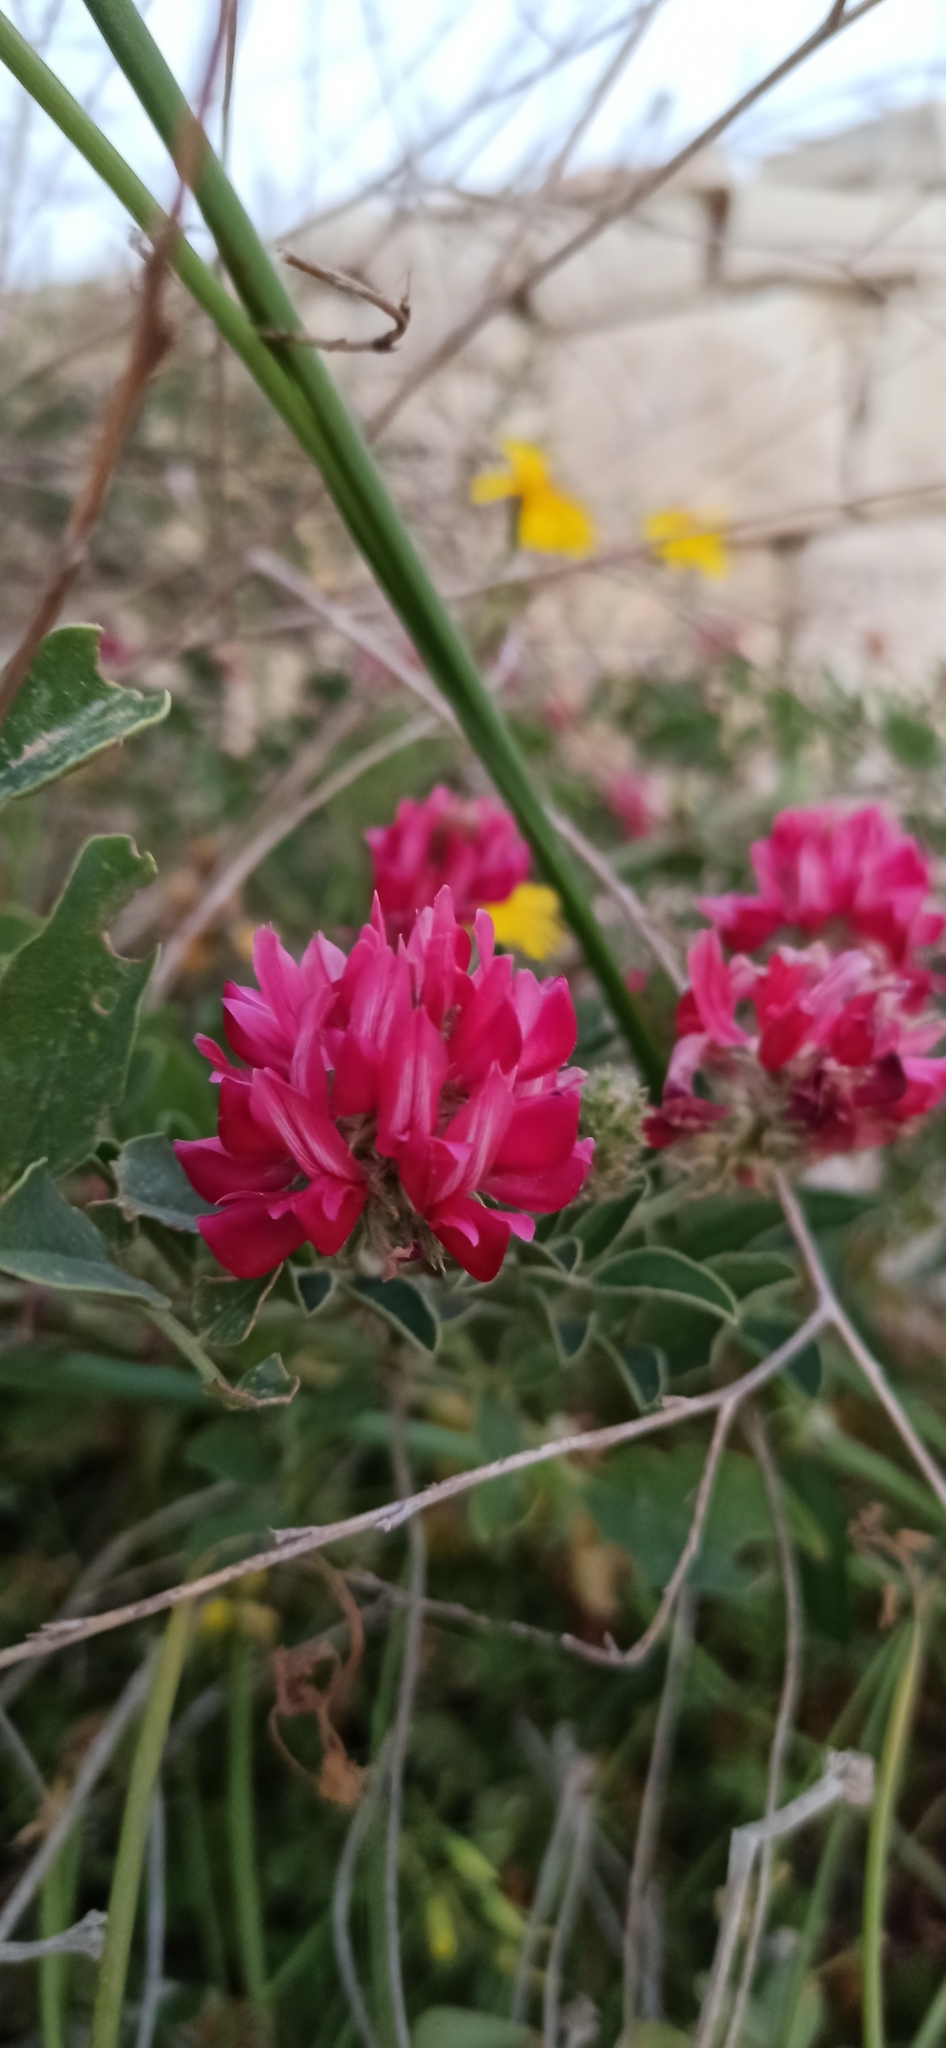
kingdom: Plantae
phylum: Tracheophyta
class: Magnoliopsida
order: Fabales
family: Fabaceae
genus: Sulla
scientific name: Sulla coronaria
